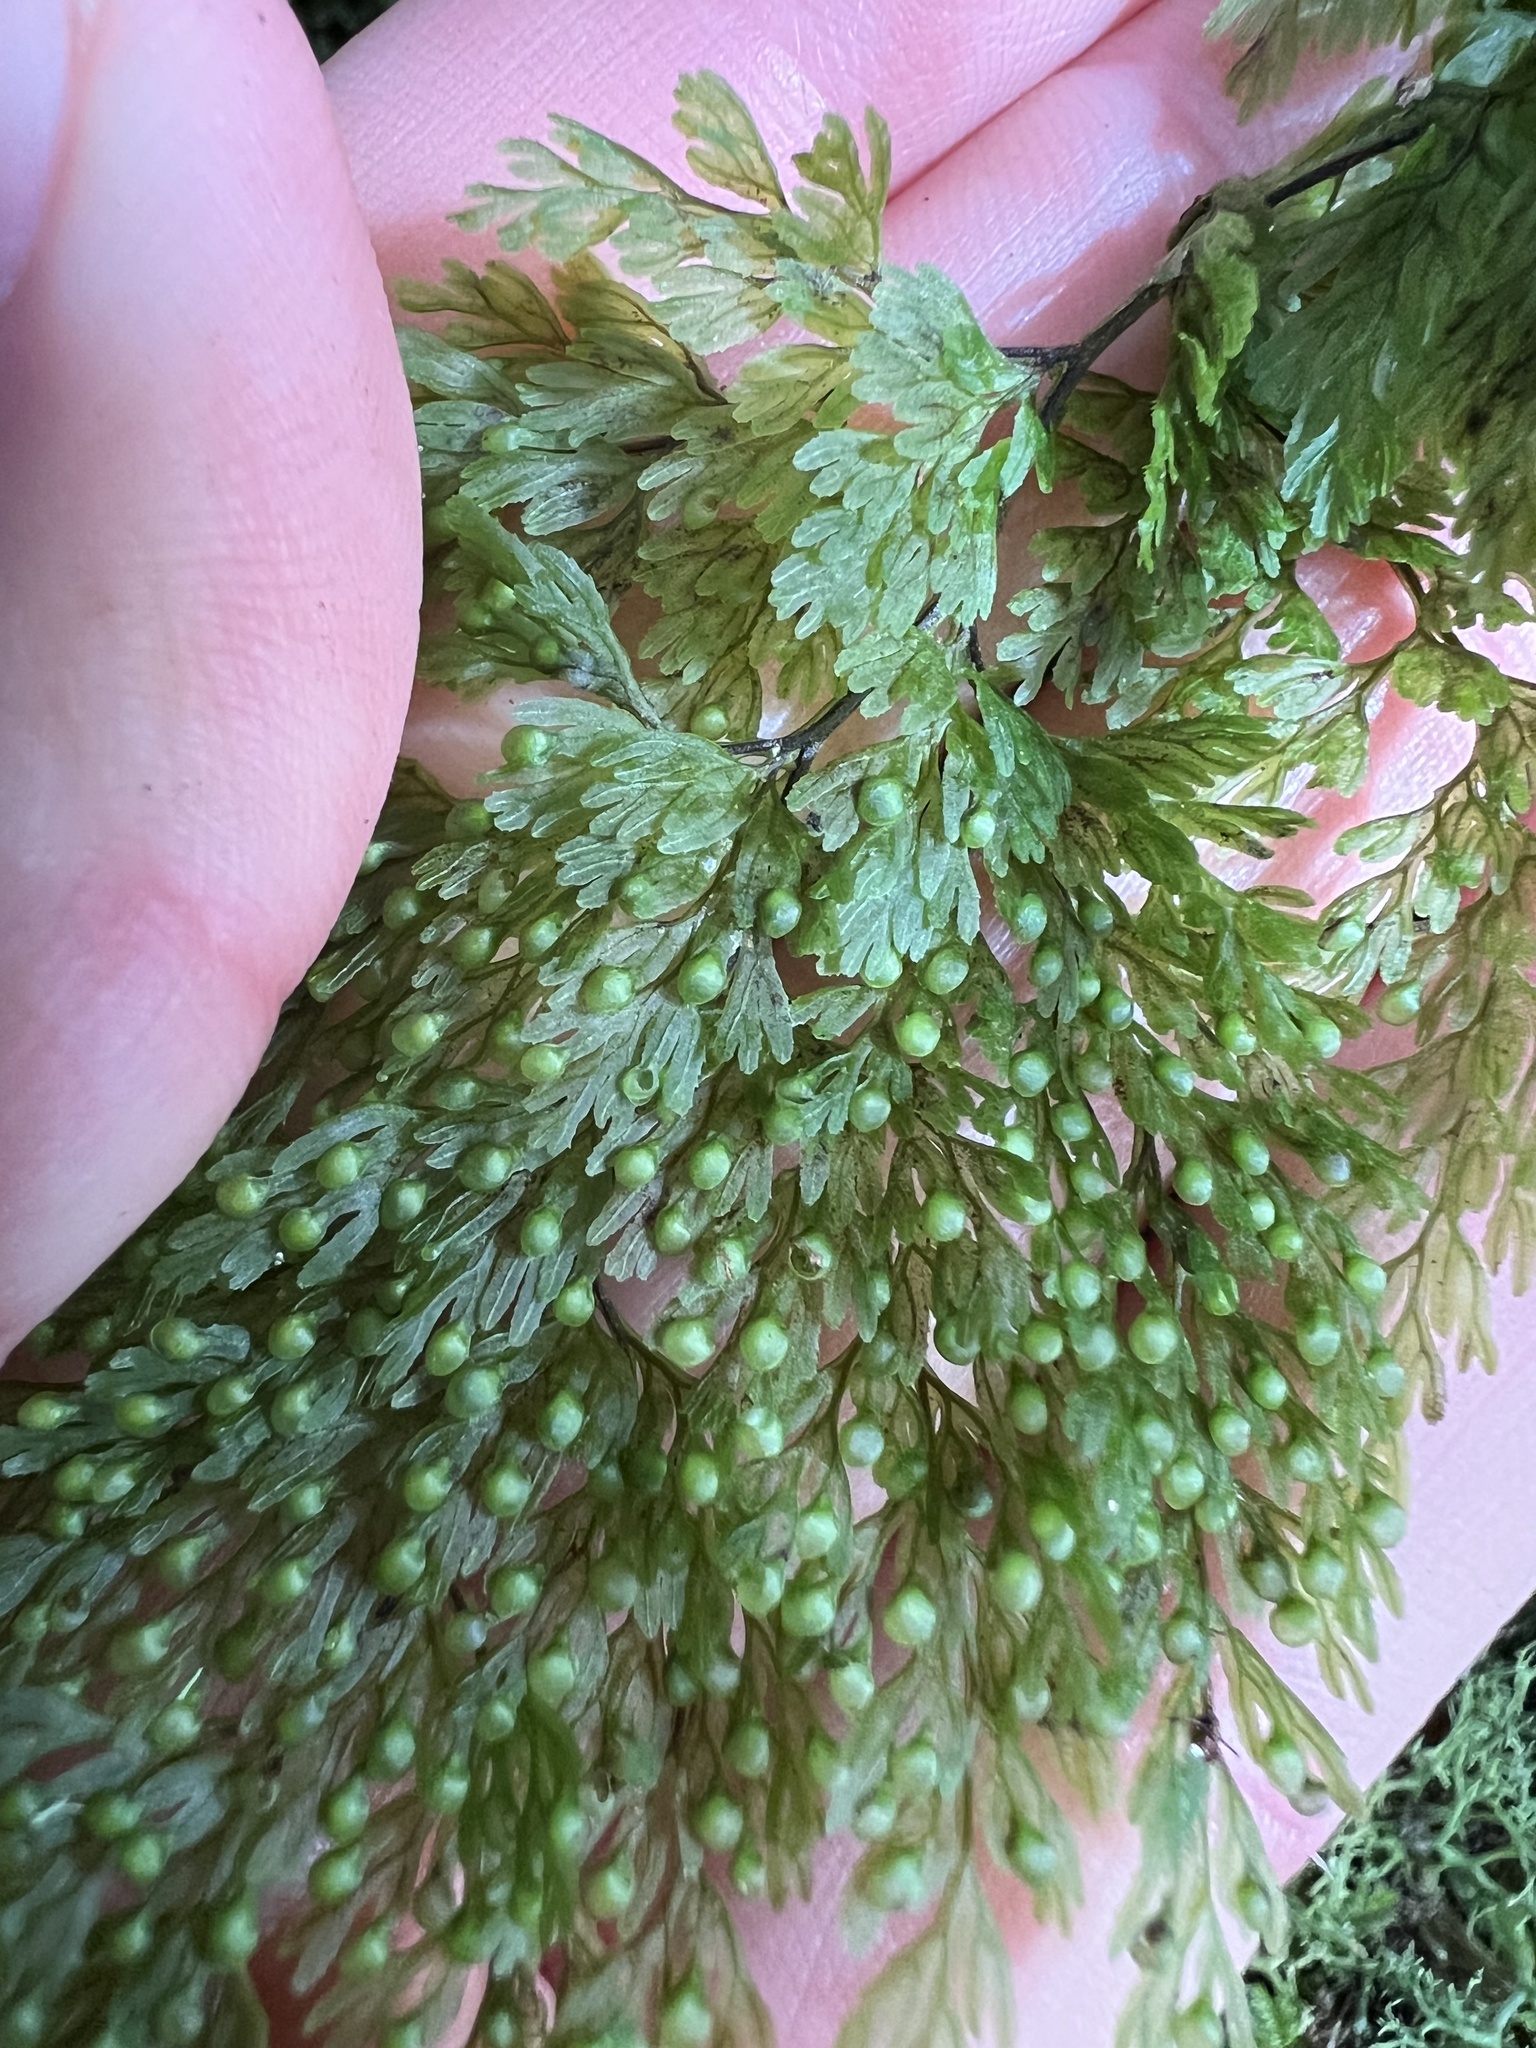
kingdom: Plantae
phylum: Tracheophyta
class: Polypodiopsida
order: Hymenophyllales
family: Hymenophyllaceae
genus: Hymenophyllum
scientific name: Hymenophyllum bivalve
